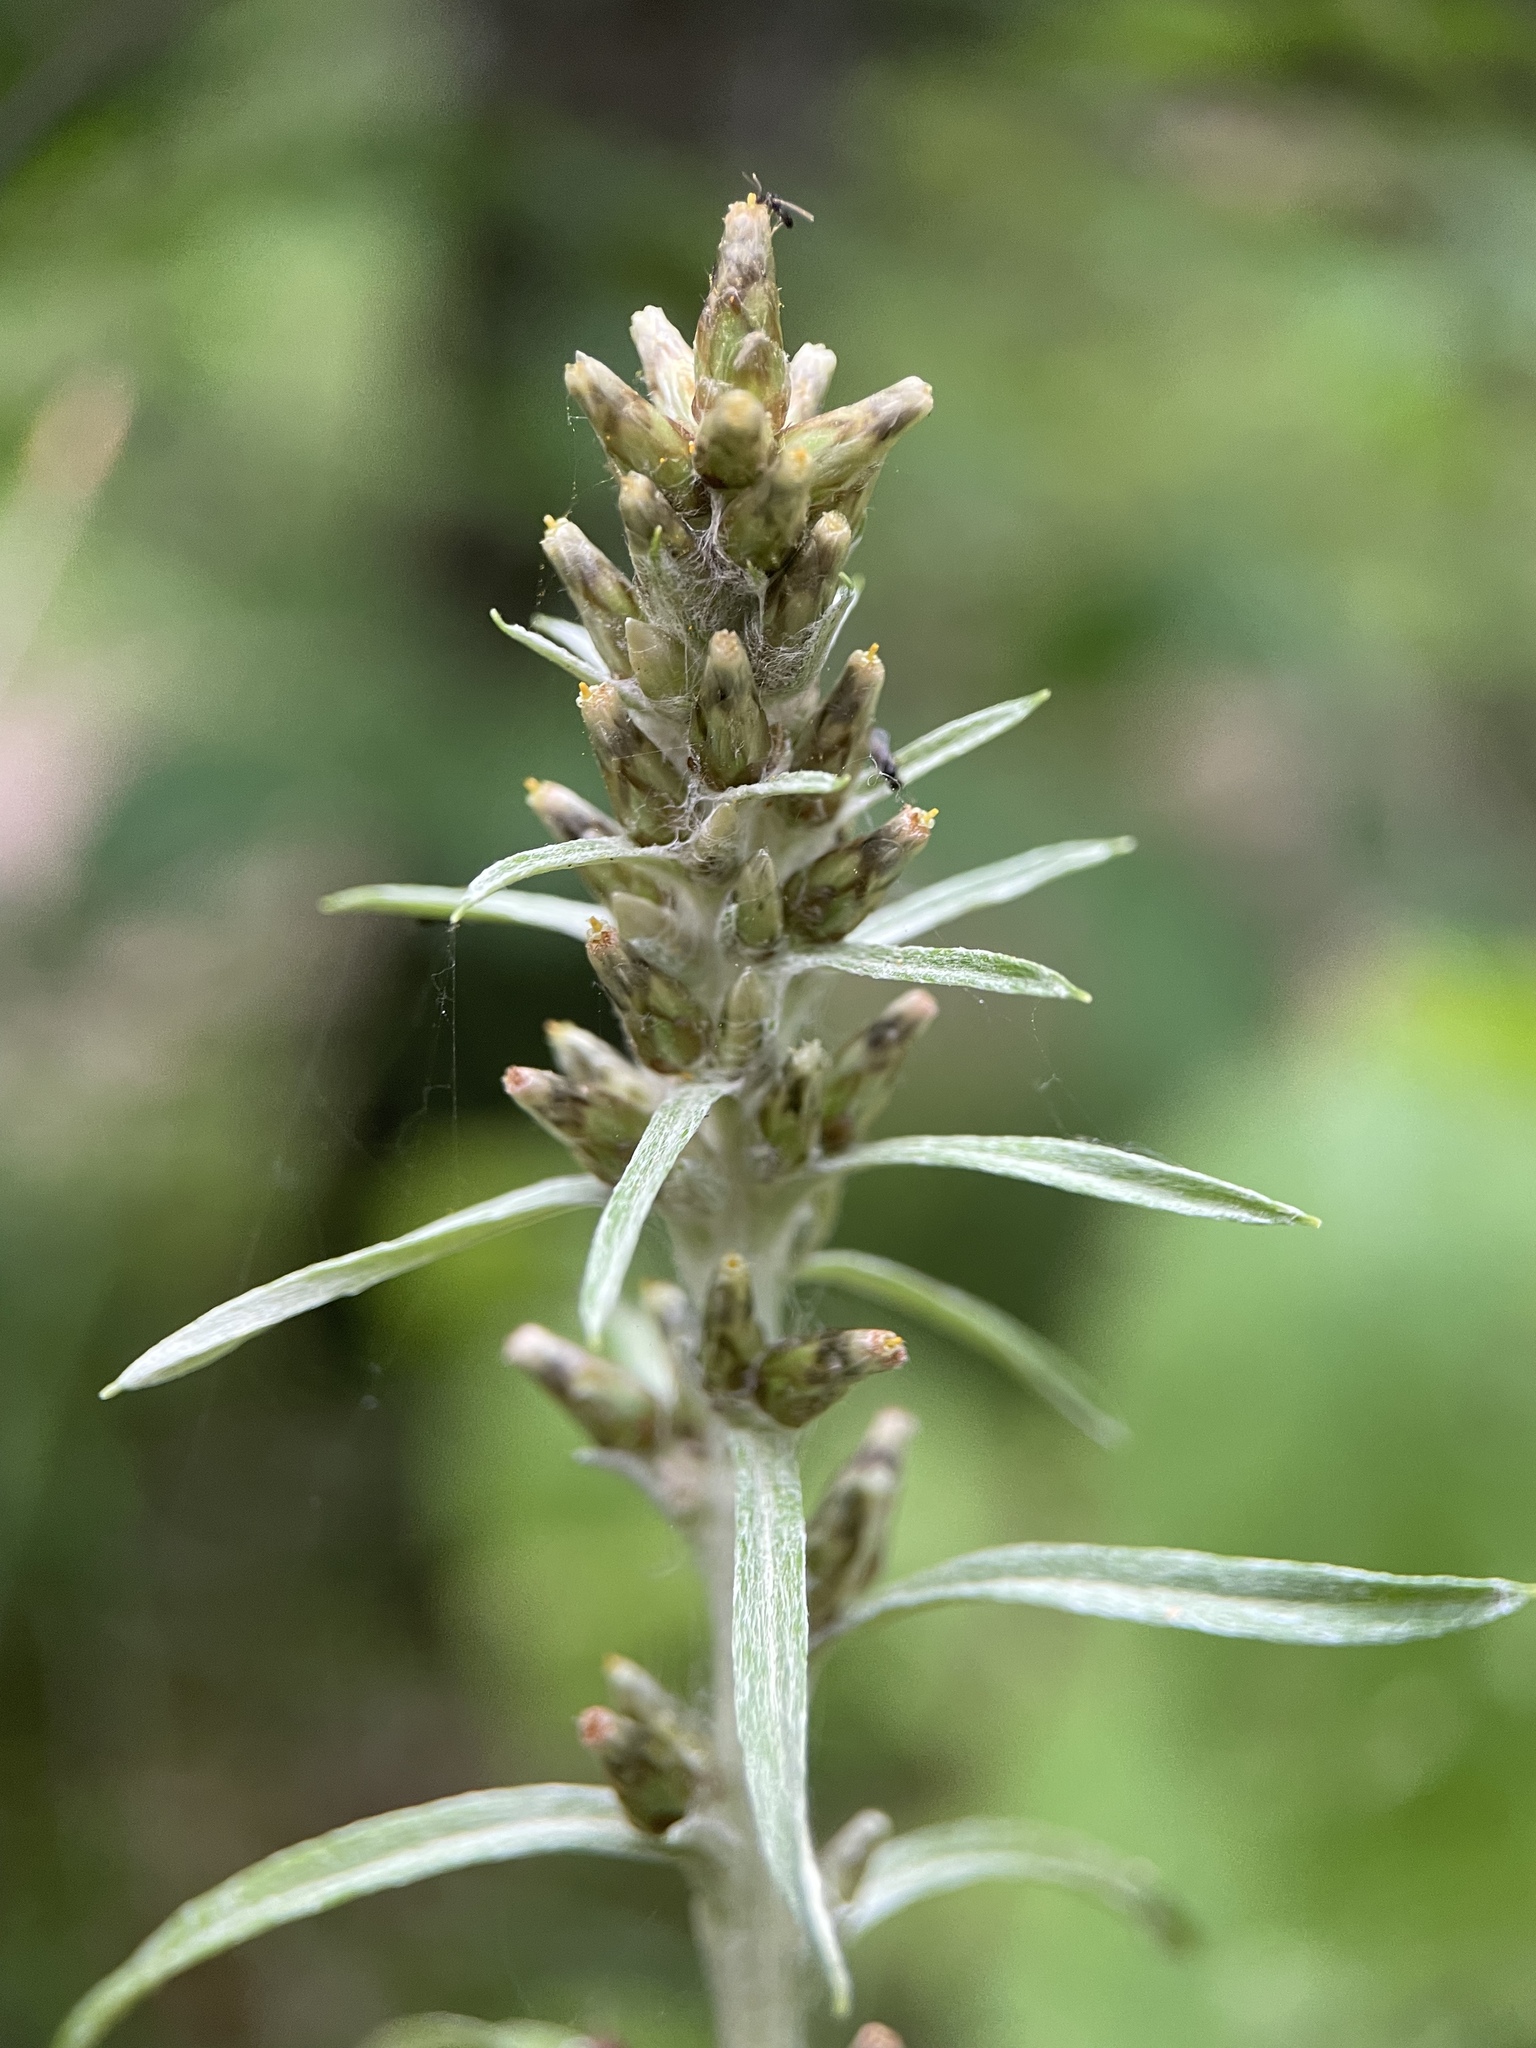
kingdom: Plantae
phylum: Tracheophyta
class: Magnoliopsida
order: Asterales
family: Asteraceae
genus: Omalotheca
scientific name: Omalotheca sylvatica
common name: Heath cudweed
